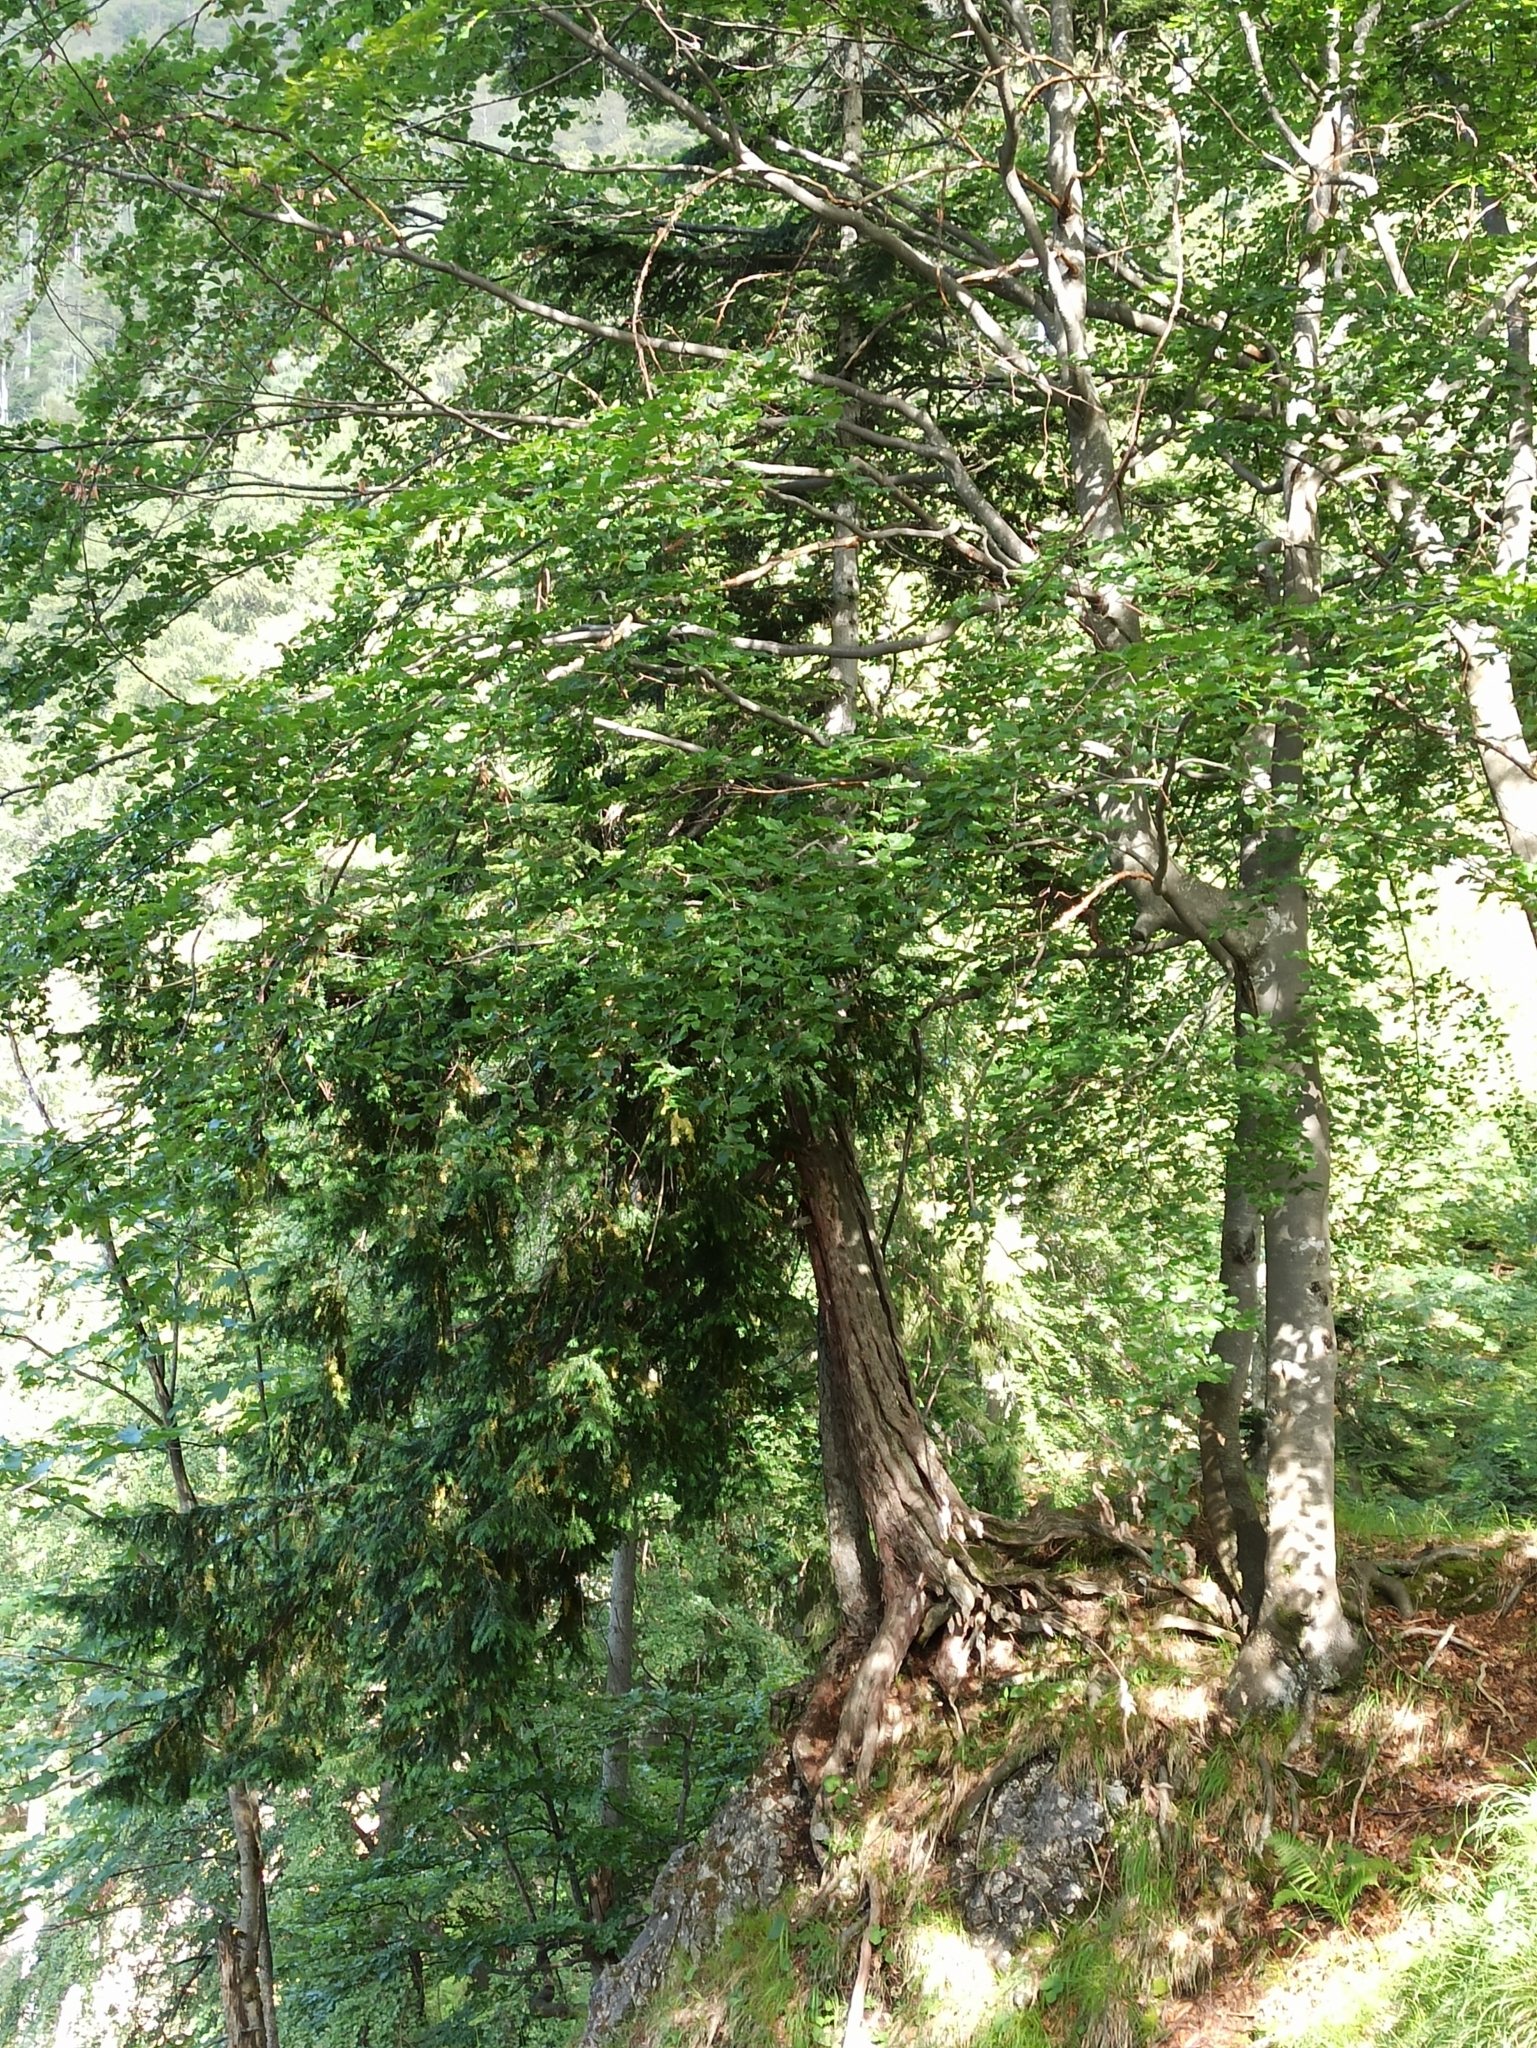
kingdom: Plantae
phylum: Tracheophyta
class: Pinopsida
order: Pinales
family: Taxaceae
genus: Taxus
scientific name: Taxus baccata
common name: Yew
